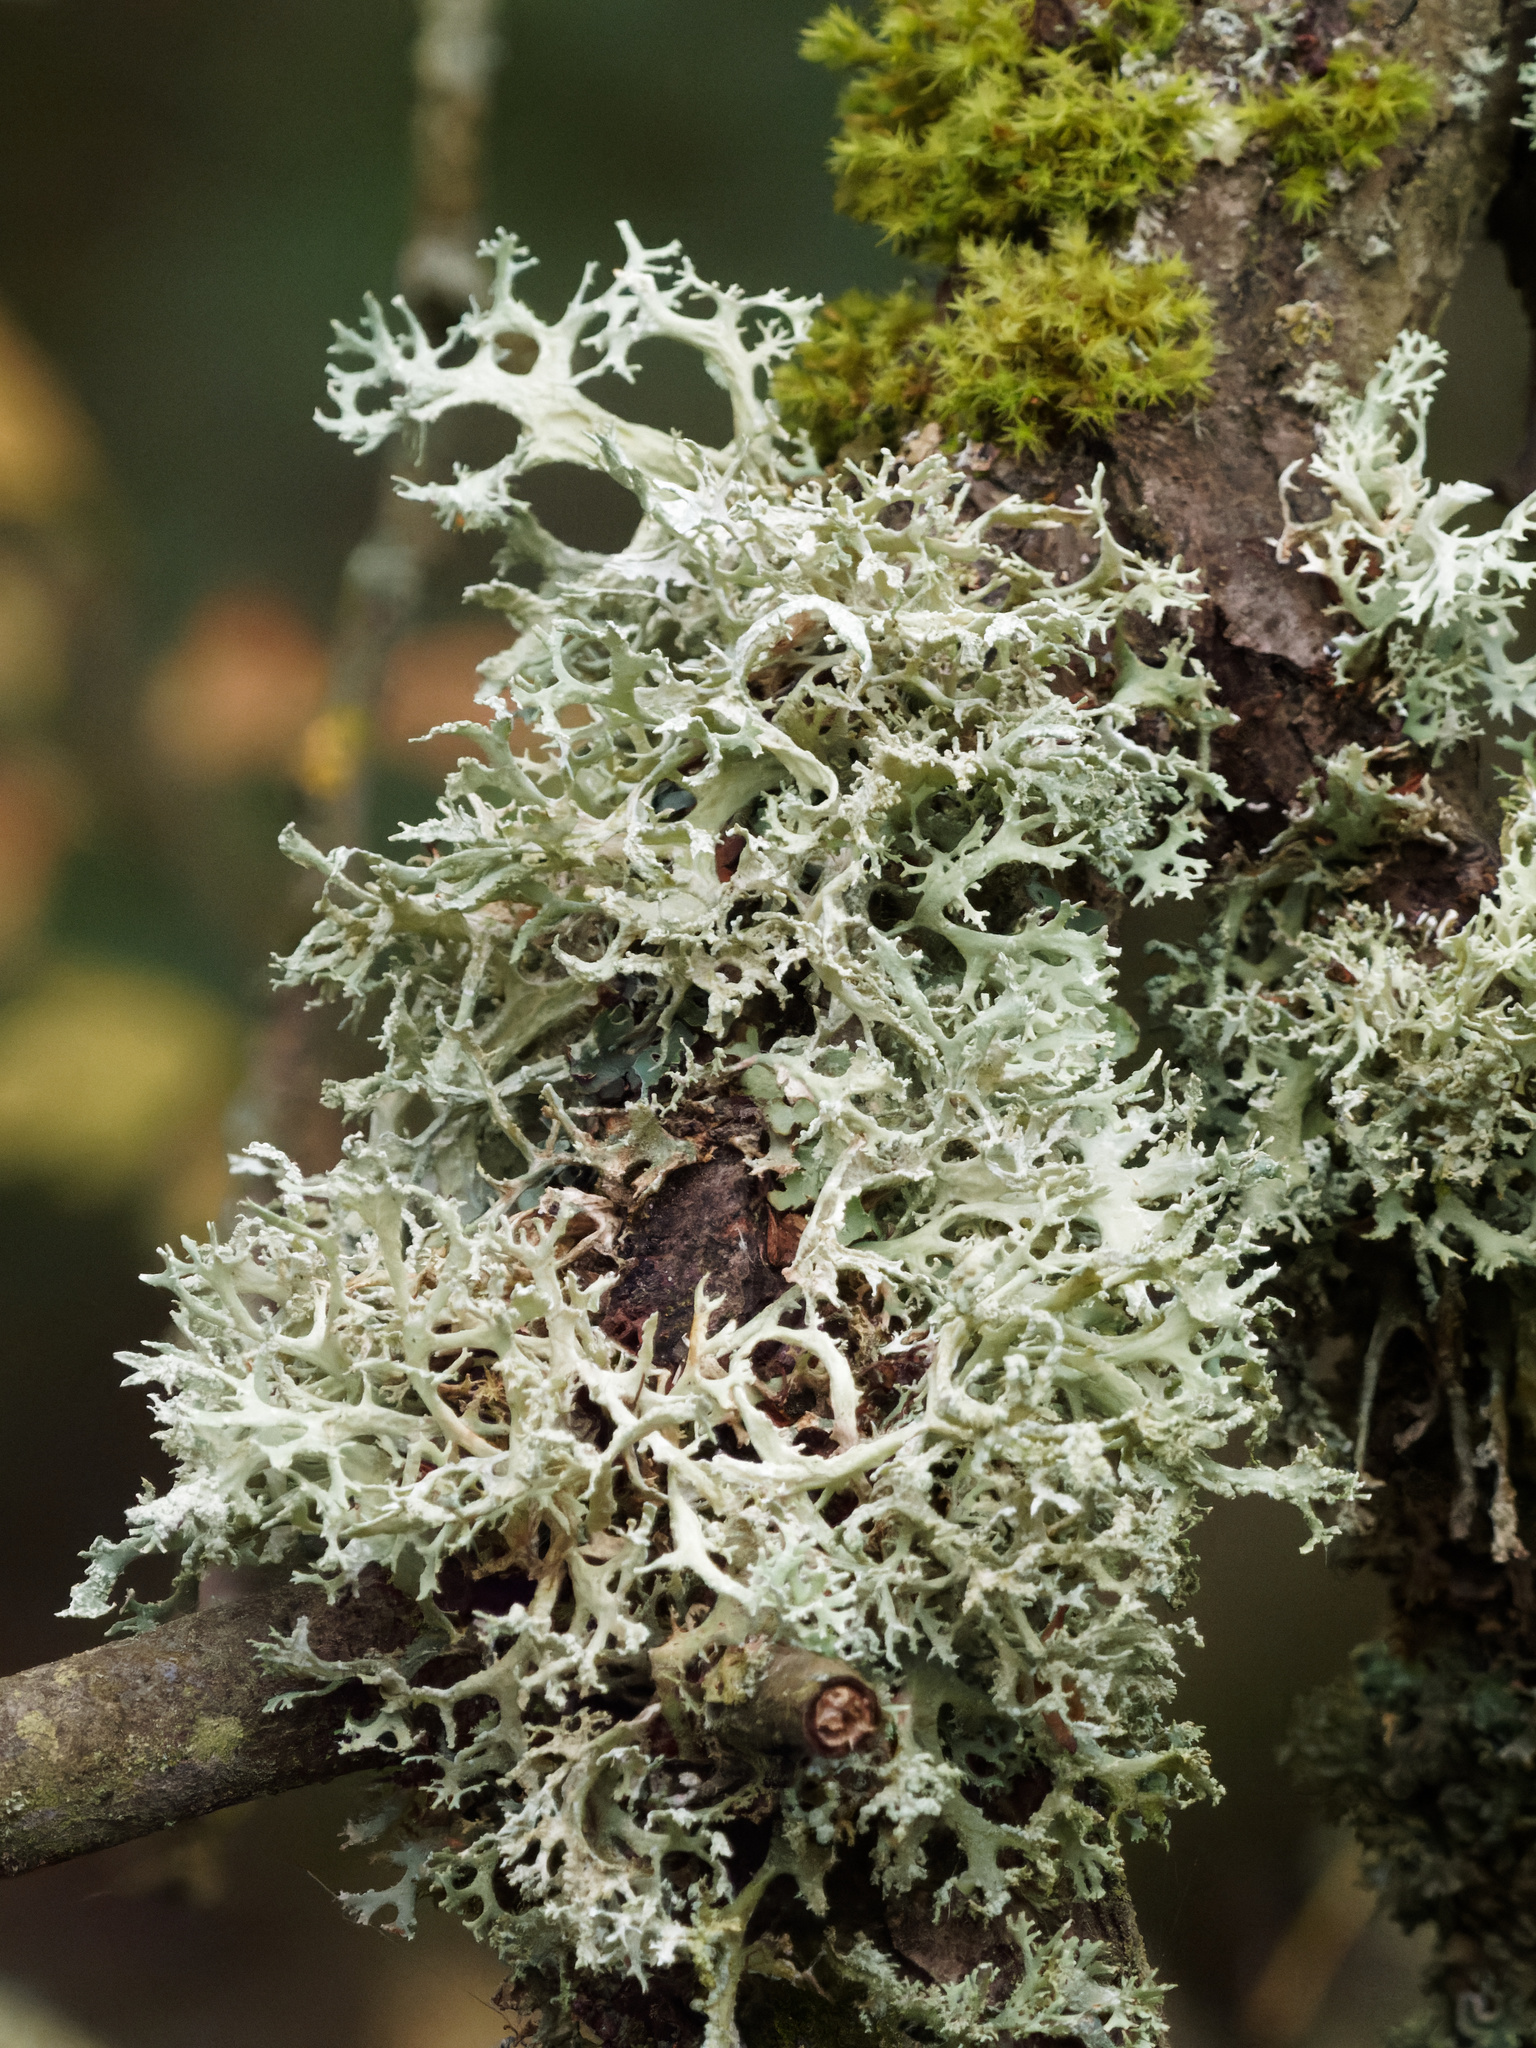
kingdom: Fungi
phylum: Ascomycota
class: Lecanoromycetes
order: Lecanorales
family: Parmeliaceae
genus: Evernia
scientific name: Evernia prunastri
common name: Oak moss
